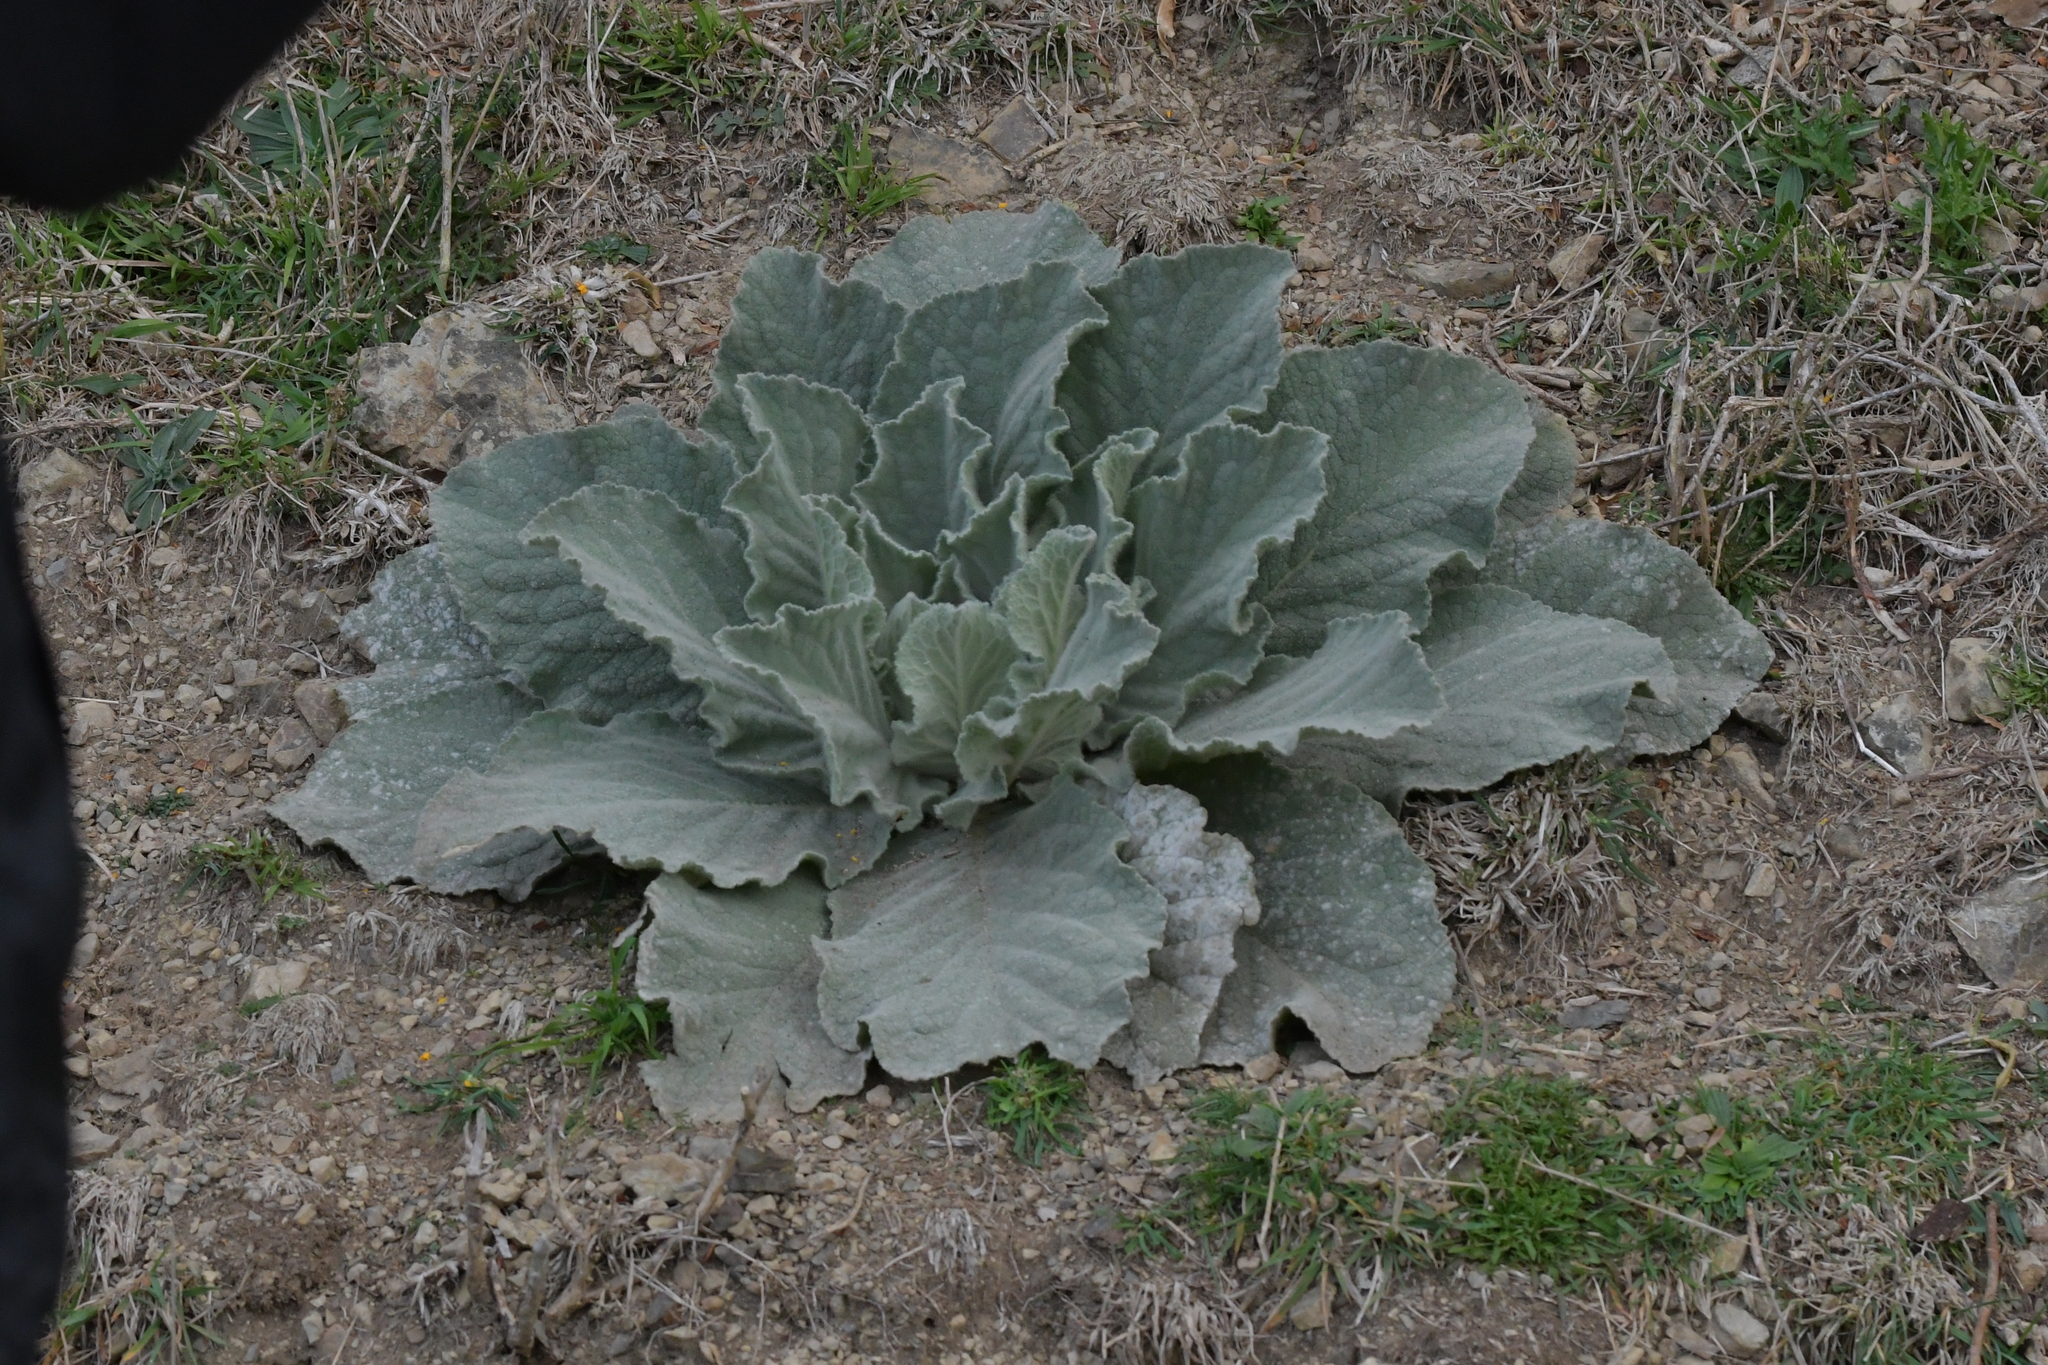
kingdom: Plantae
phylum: Tracheophyta
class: Magnoliopsida
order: Lamiales
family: Scrophulariaceae
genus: Verbascum
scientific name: Verbascum thapsus
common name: Common mullein
